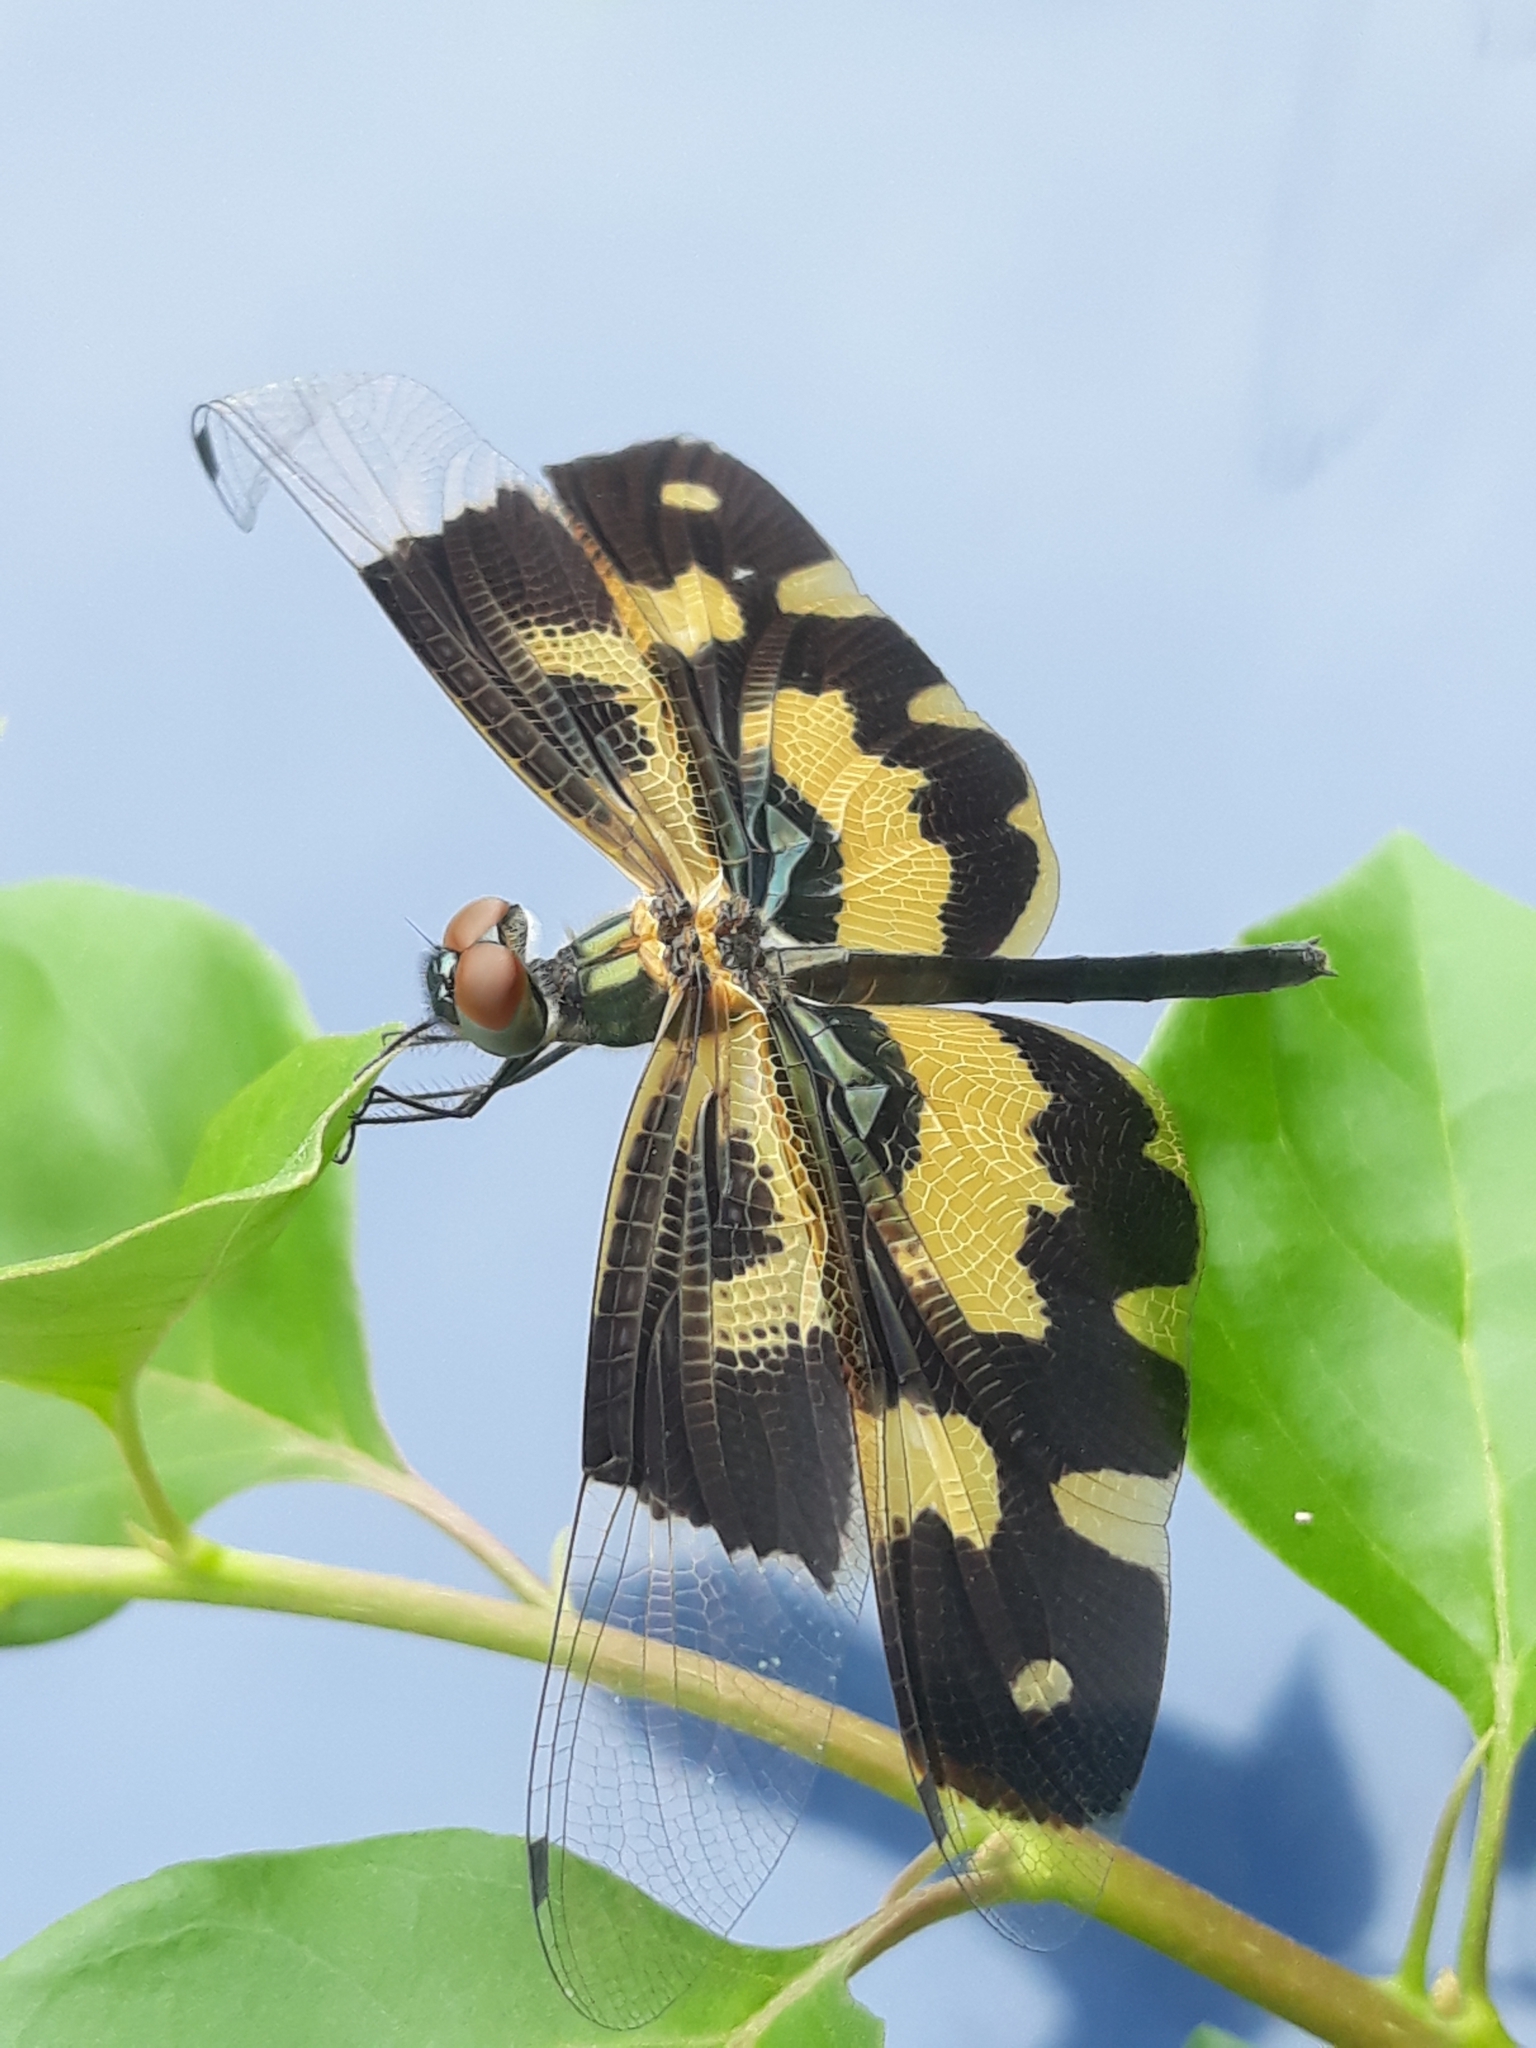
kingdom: Animalia
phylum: Arthropoda
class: Insecta
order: Odonata
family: Libellulidae
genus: Rhyothemis
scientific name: Rhyothemis variegata
